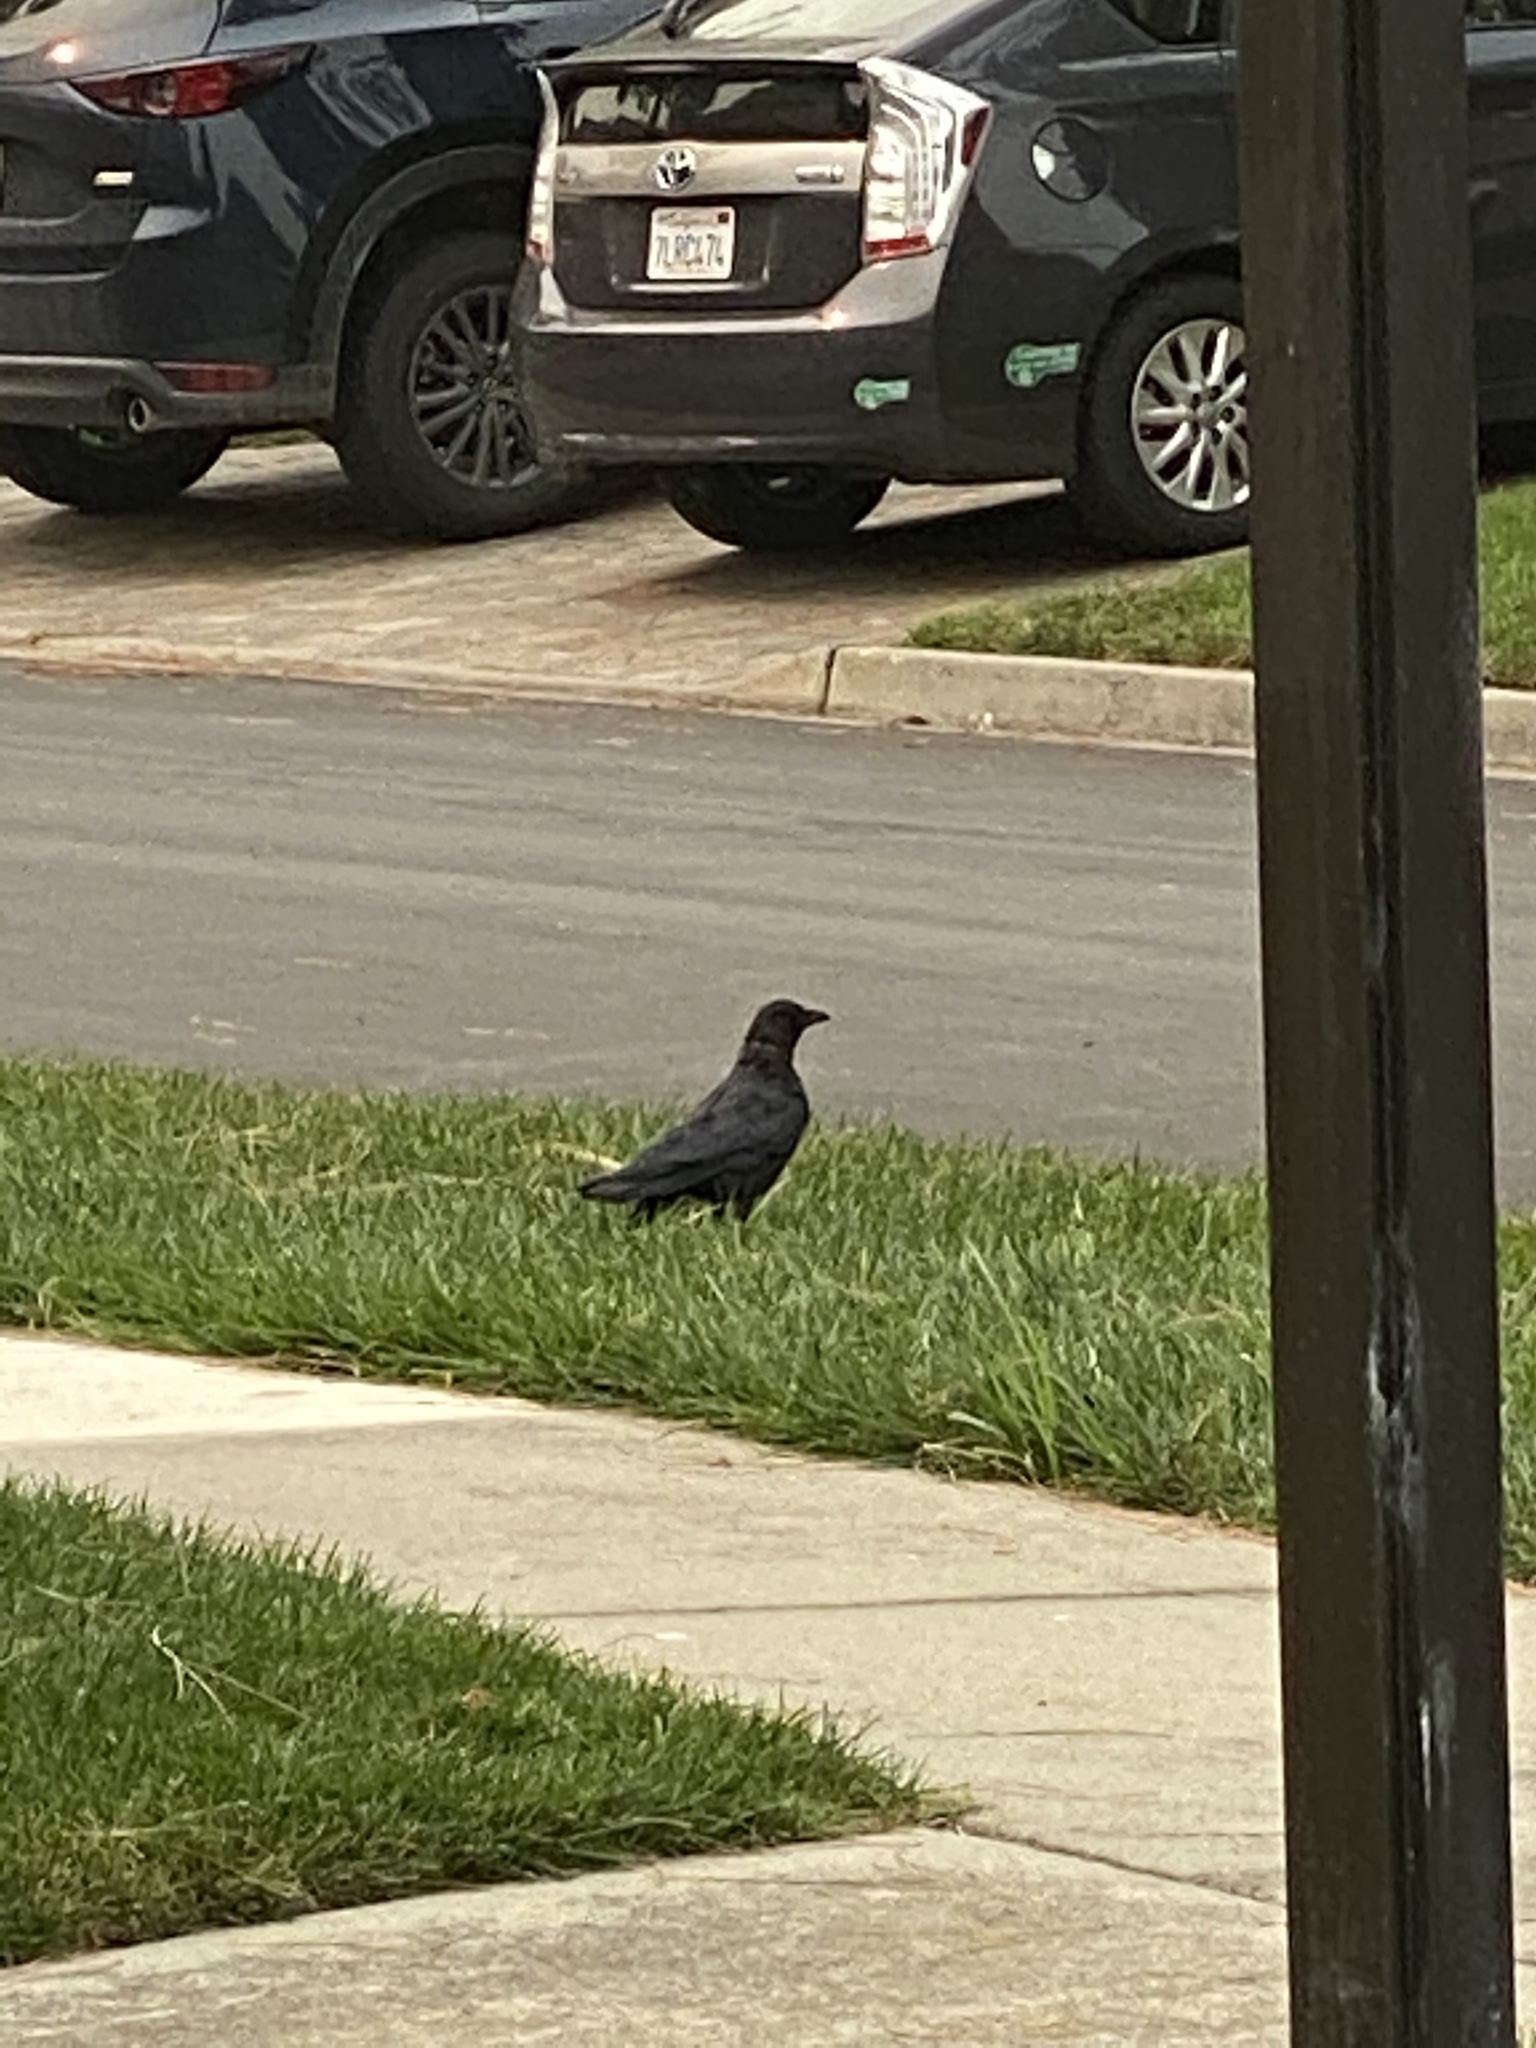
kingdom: Animalia
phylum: Chordata
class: Aves
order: Passeriformes
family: Corvidae
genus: Corvus
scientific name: Corvus brachyrhynchos
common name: American crow
